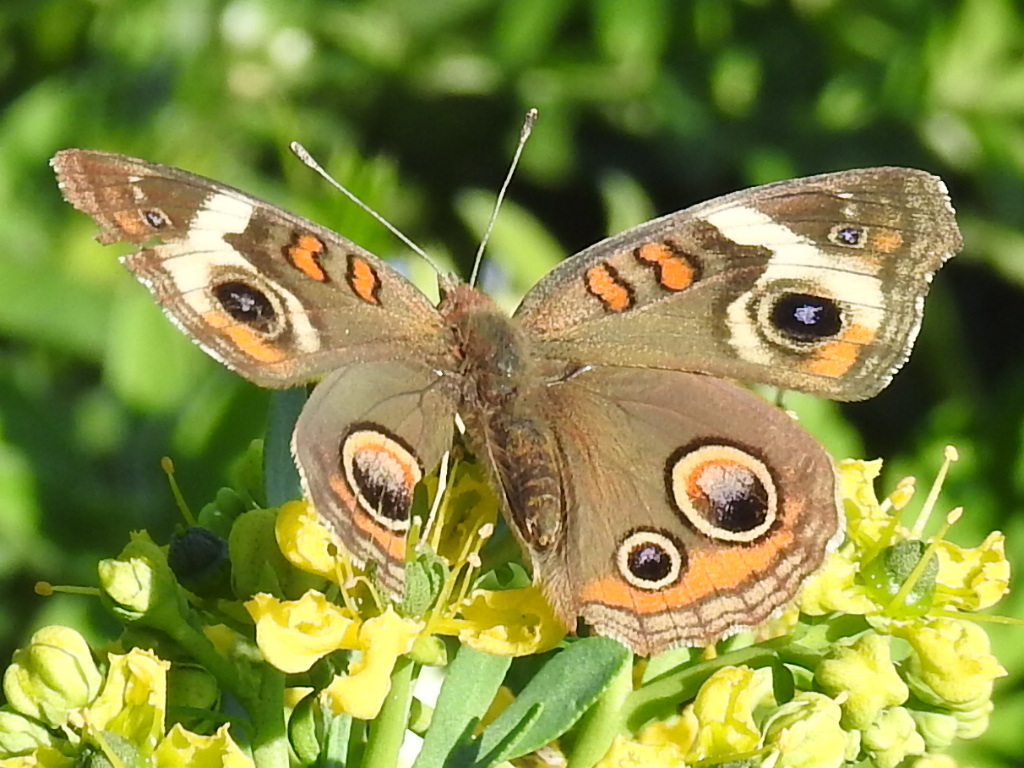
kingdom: Animalia
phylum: Arthropoda
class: Insecta
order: Lepidoptera
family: Nymphalidae
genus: Junonia
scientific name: Junonia coenia
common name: Common buckeye
